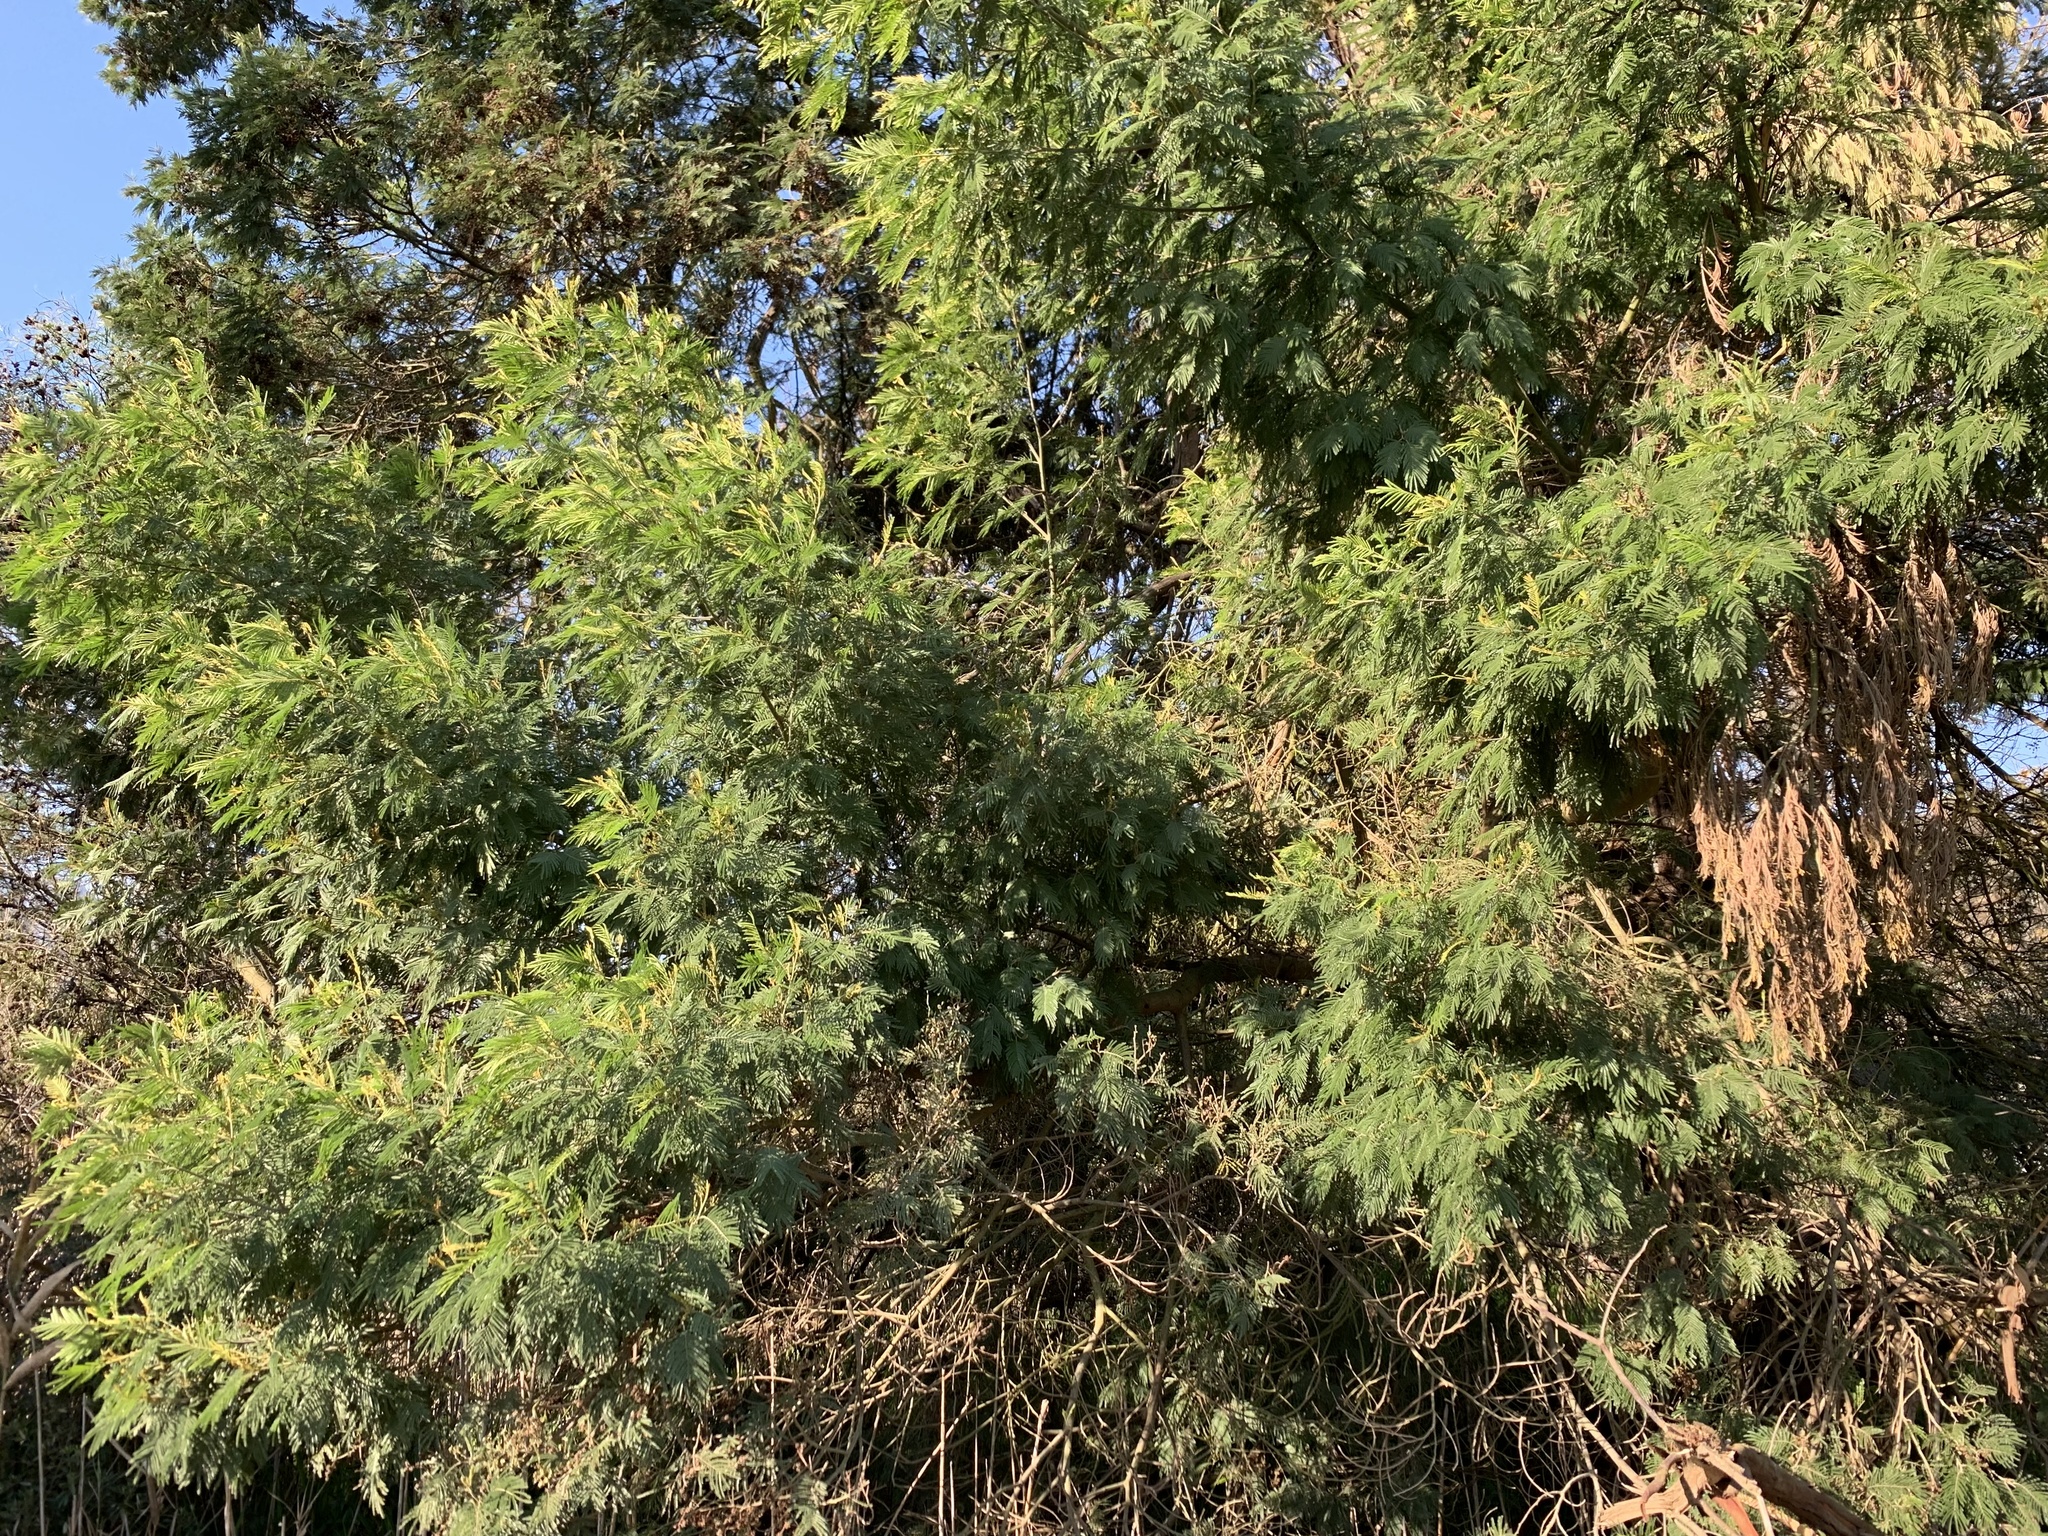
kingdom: Plantae
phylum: Tracheophyta
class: Magnoliopsida
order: Fabales
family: Fabaceae
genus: Acacia
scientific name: Acacia mearnsii
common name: Black wattle
